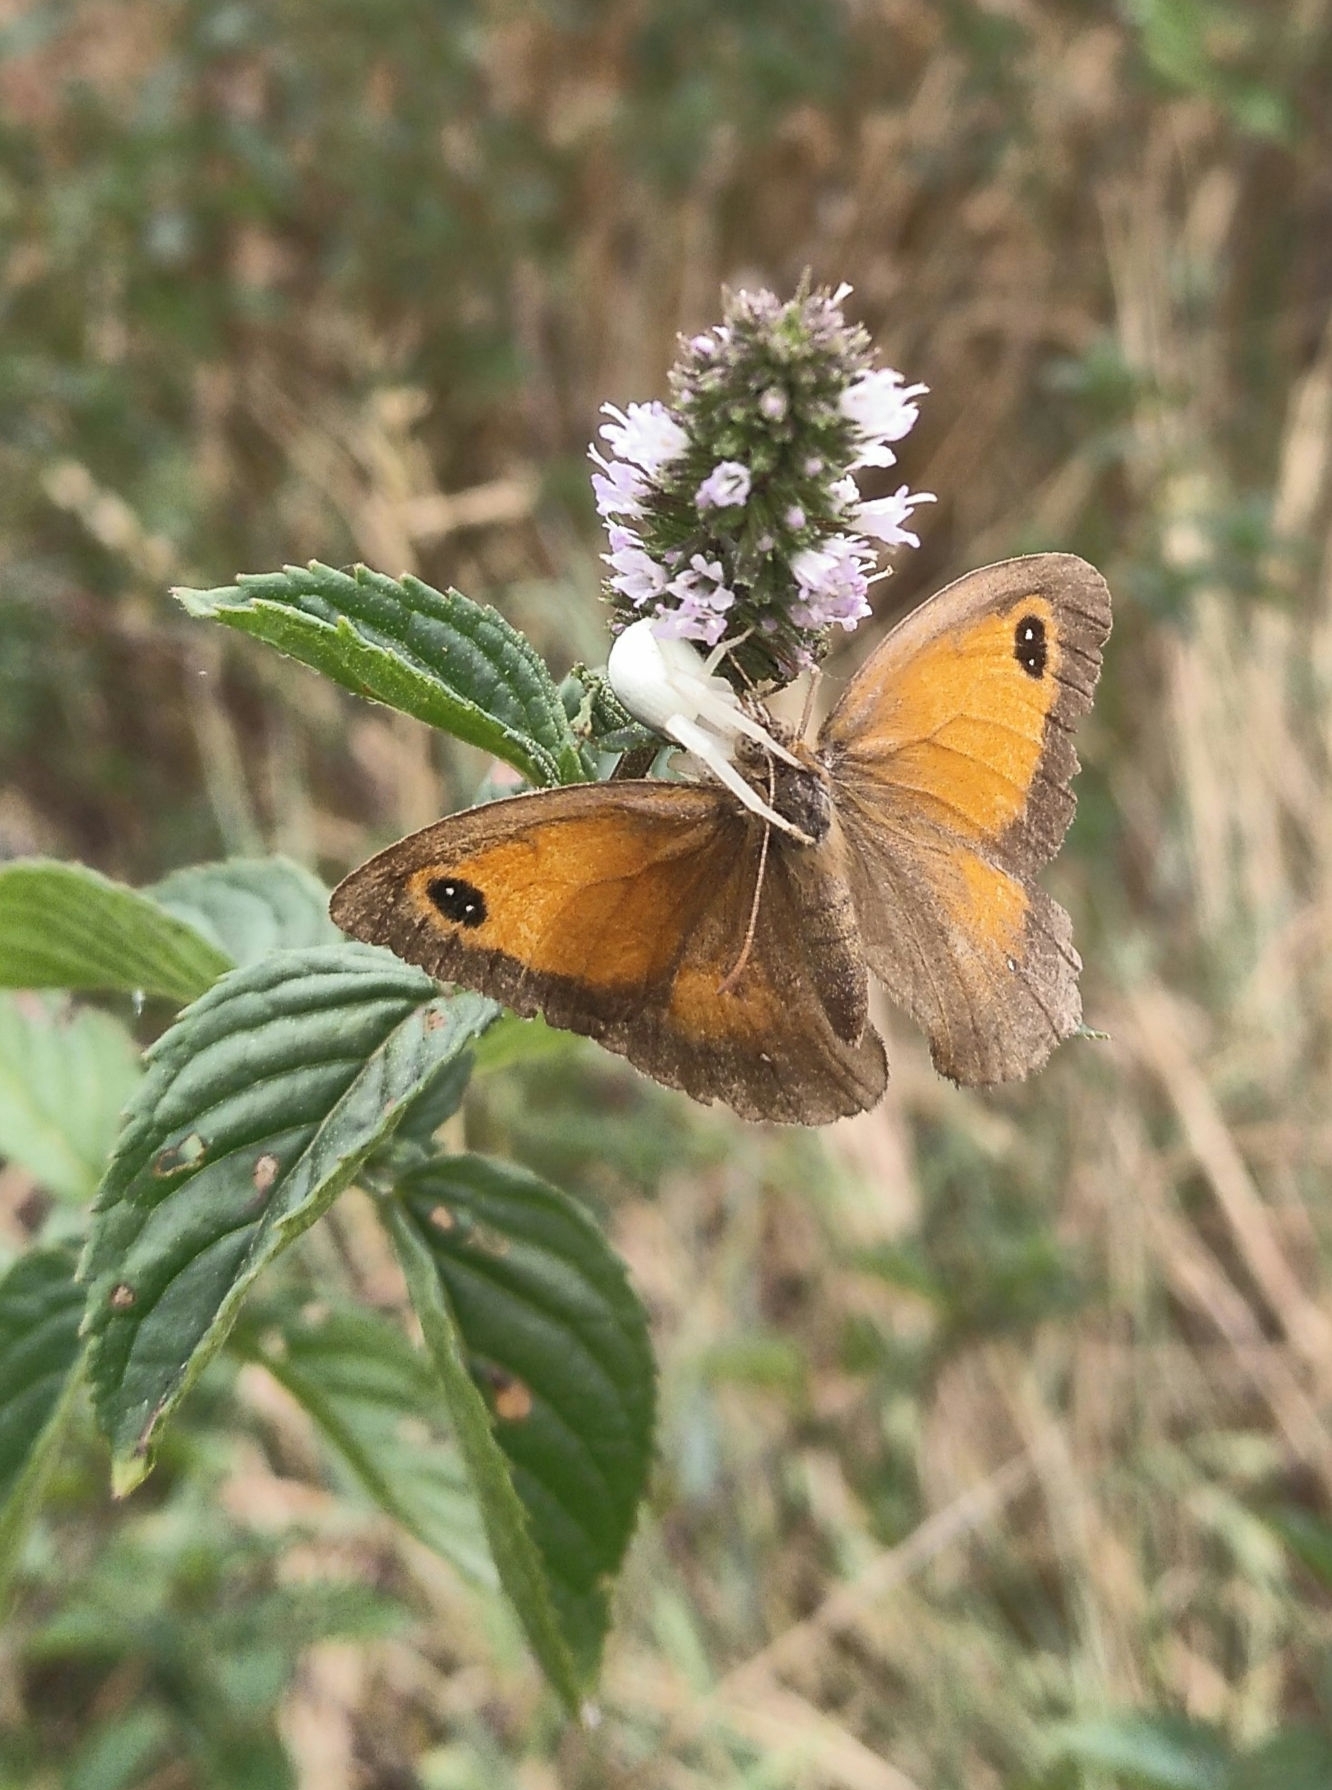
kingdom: Animalia
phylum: Arthropoda
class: Arachnida
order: Araneae
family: Thomisidae
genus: Misumena
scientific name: Misumena vatia
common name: Goldenrod crab spider
